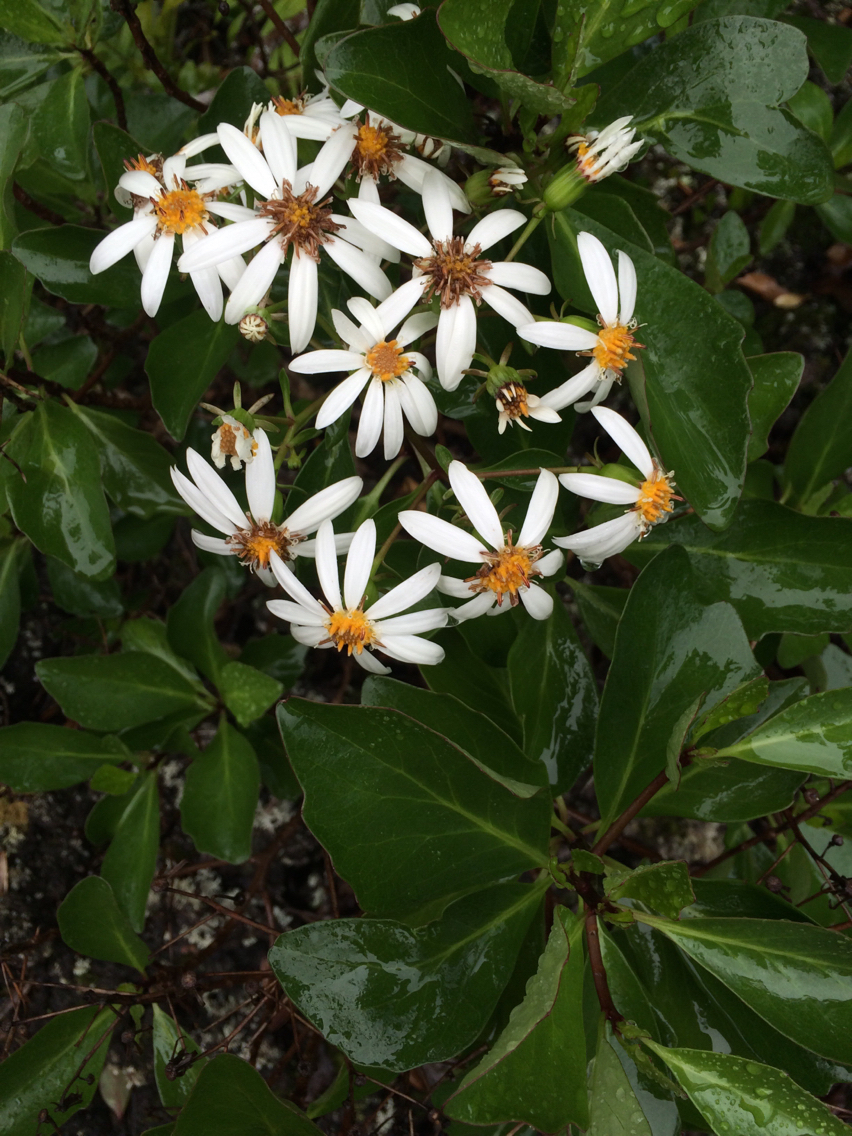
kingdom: Plantae
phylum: Tracheophyta
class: Magnoliopsida
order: Asterales
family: Asteraceae
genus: Brachyglottis
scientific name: Brachyglottis kirkii
